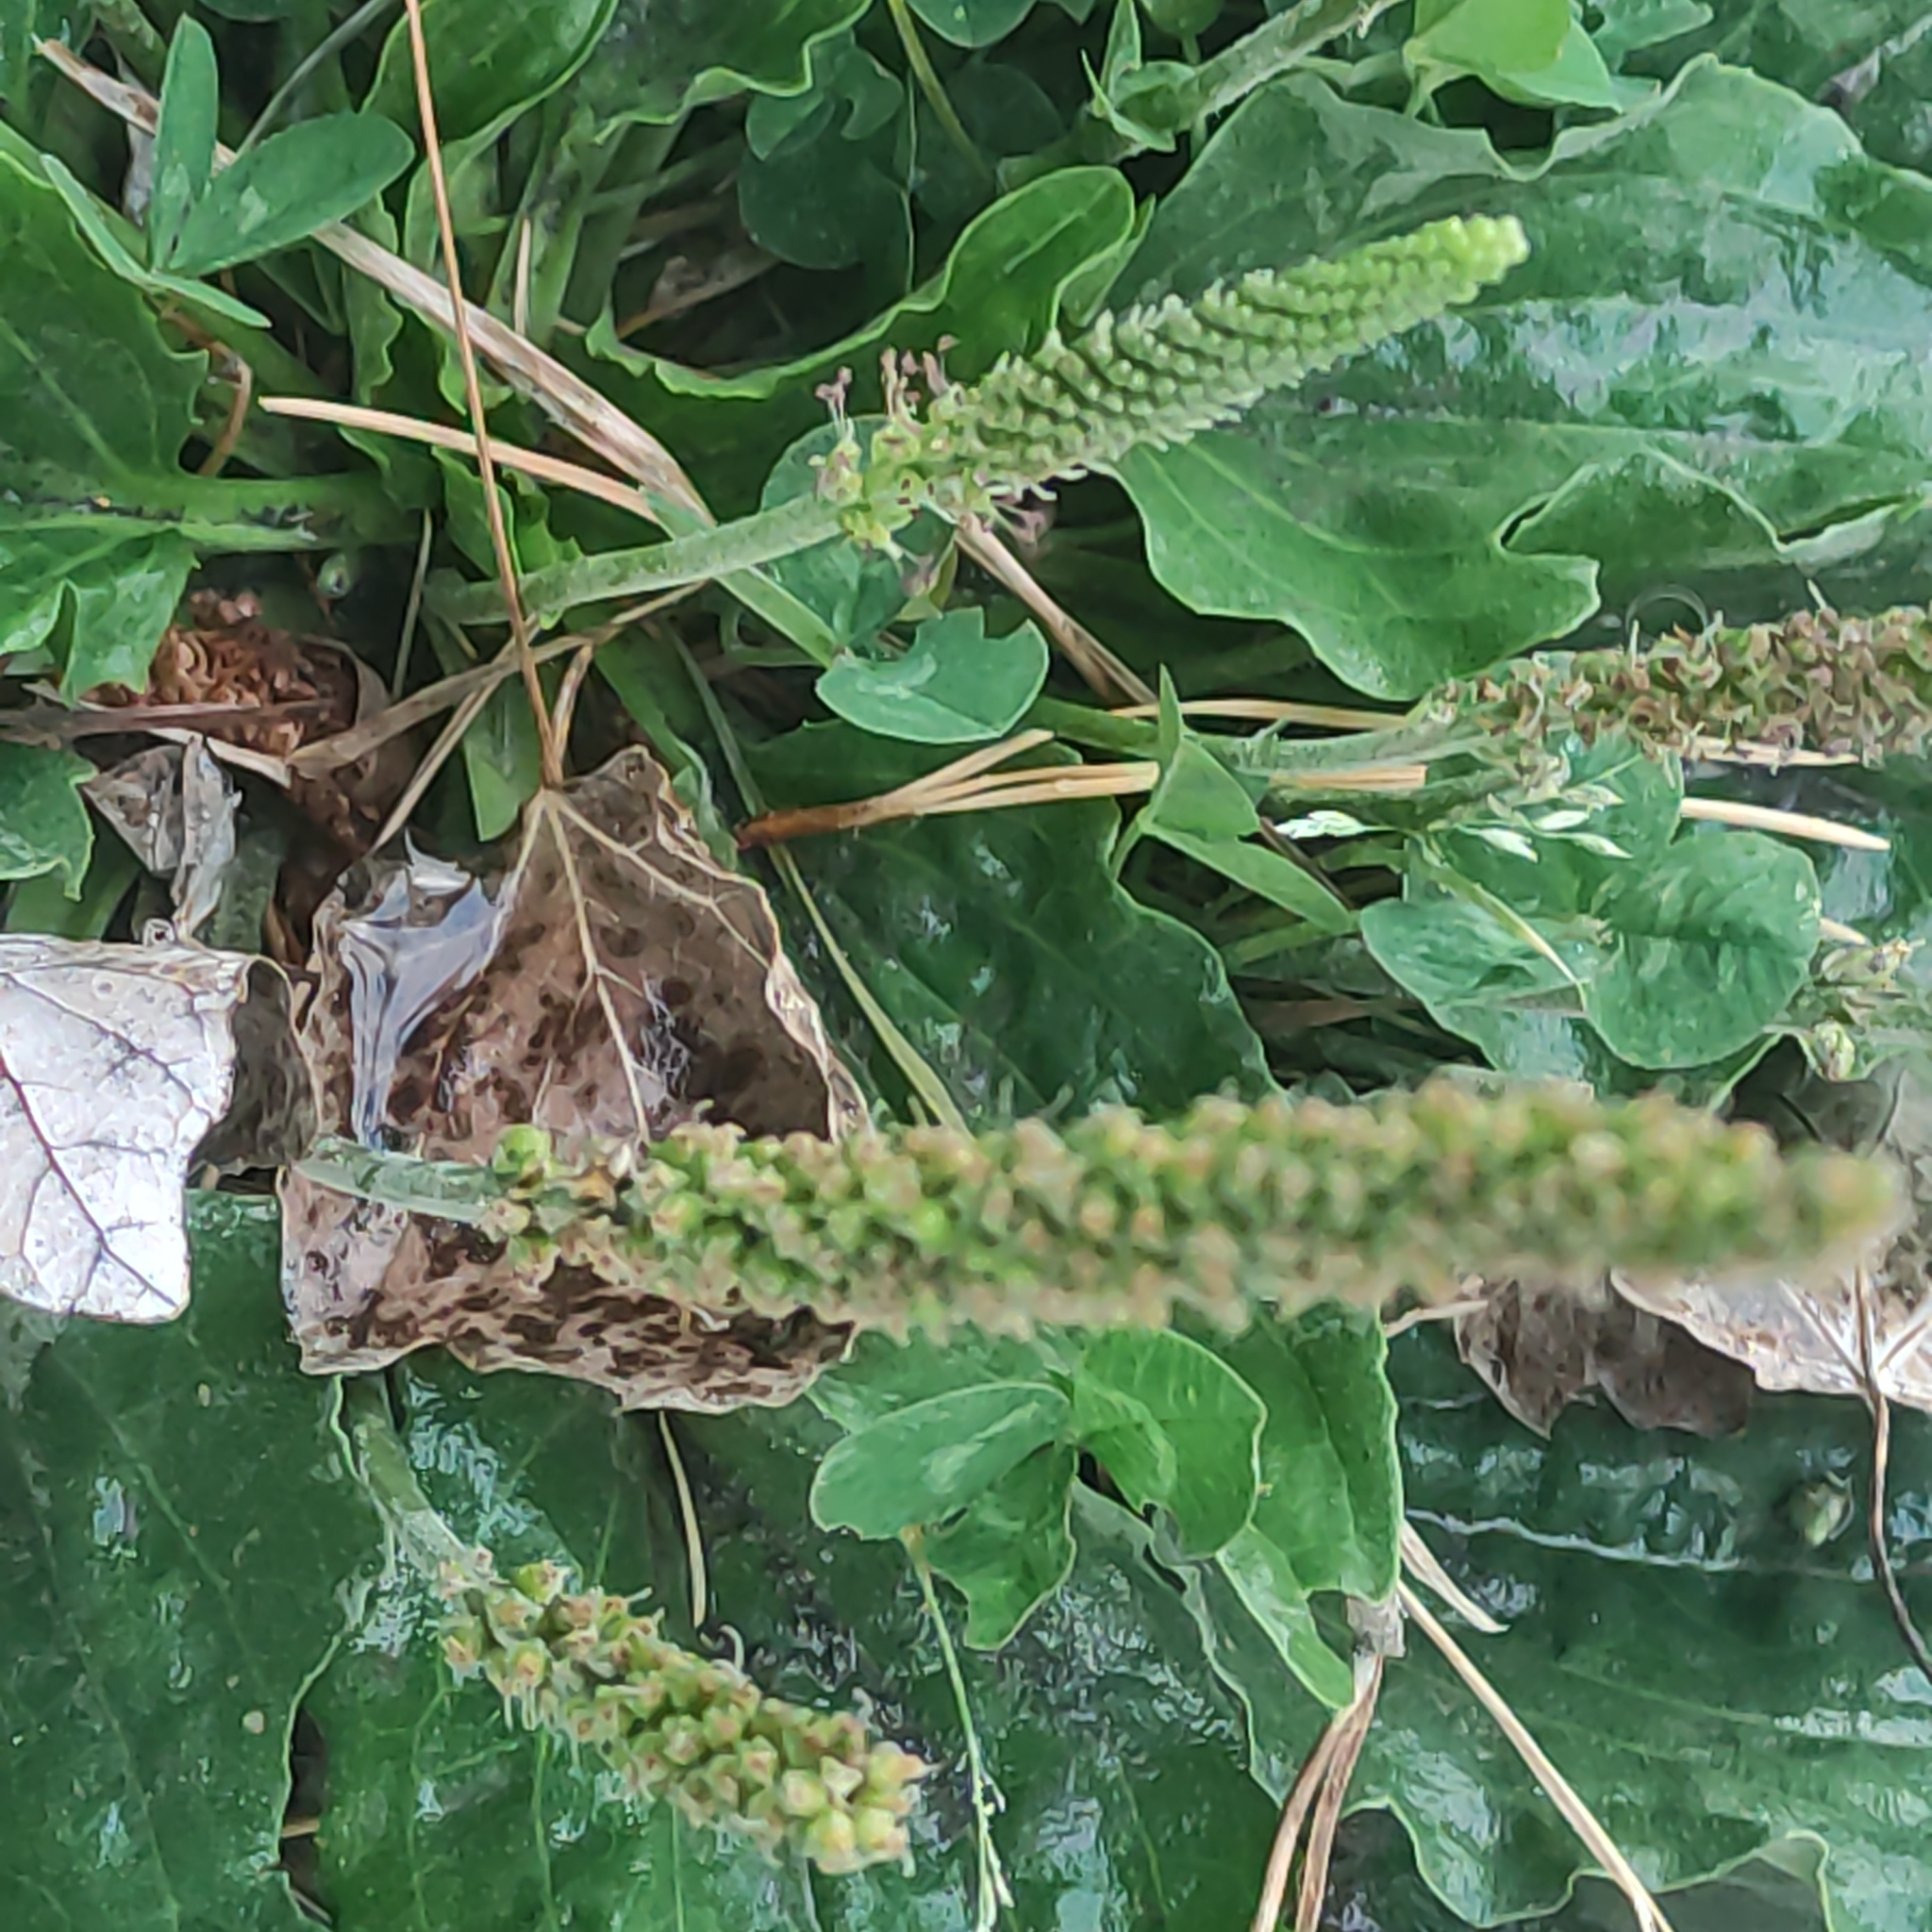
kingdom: Plantae
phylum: Tracheophyta
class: Magnoliopsida
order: Lamiales
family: Plantaginaceae
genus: Plantago
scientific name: Plantago major
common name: Common plantain
